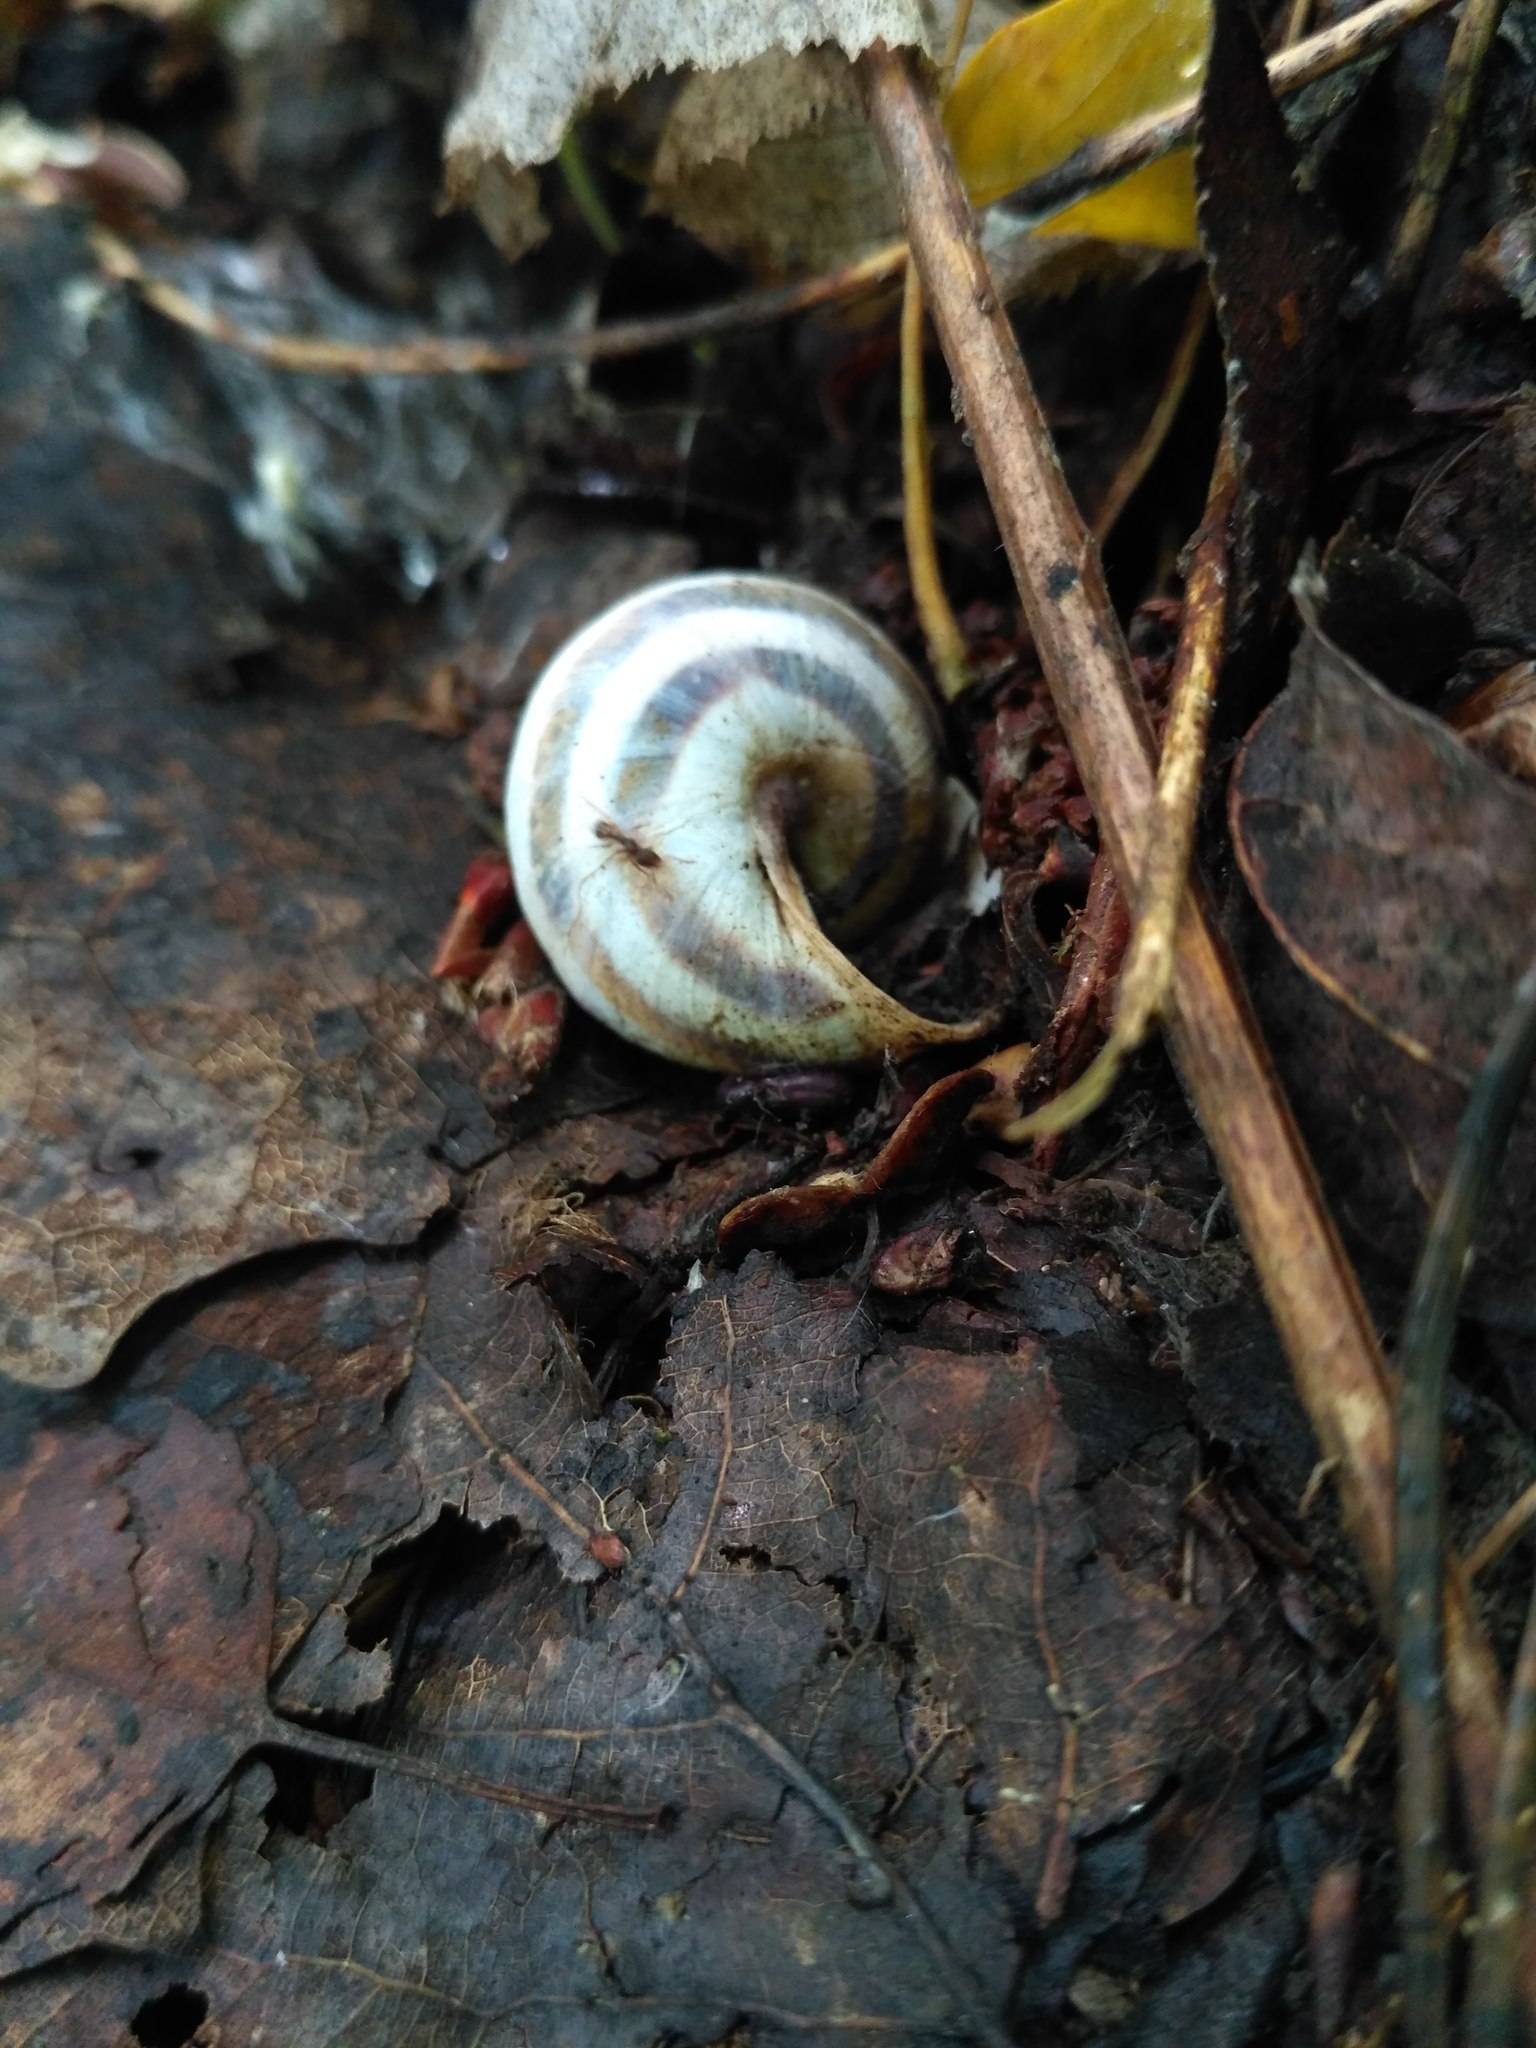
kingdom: Animalia
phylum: Mollusca
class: Gastropoda
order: Stylommatophora
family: Helicidae
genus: Caucasotachea
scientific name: Caucasotachea vindobonensis
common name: European helicid land snail
